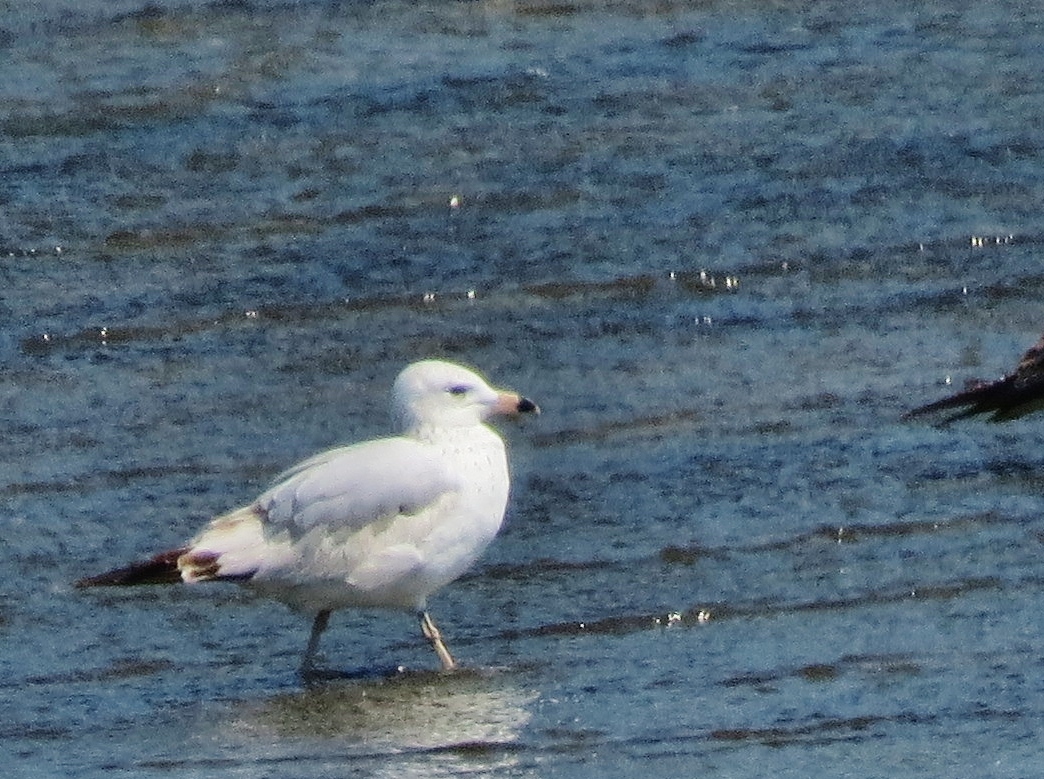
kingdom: Animalia
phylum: Chordata
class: Aves
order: Charadriiformes
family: Laridae
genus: Larus
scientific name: Larus delawarensis
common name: Ring-billed gull
